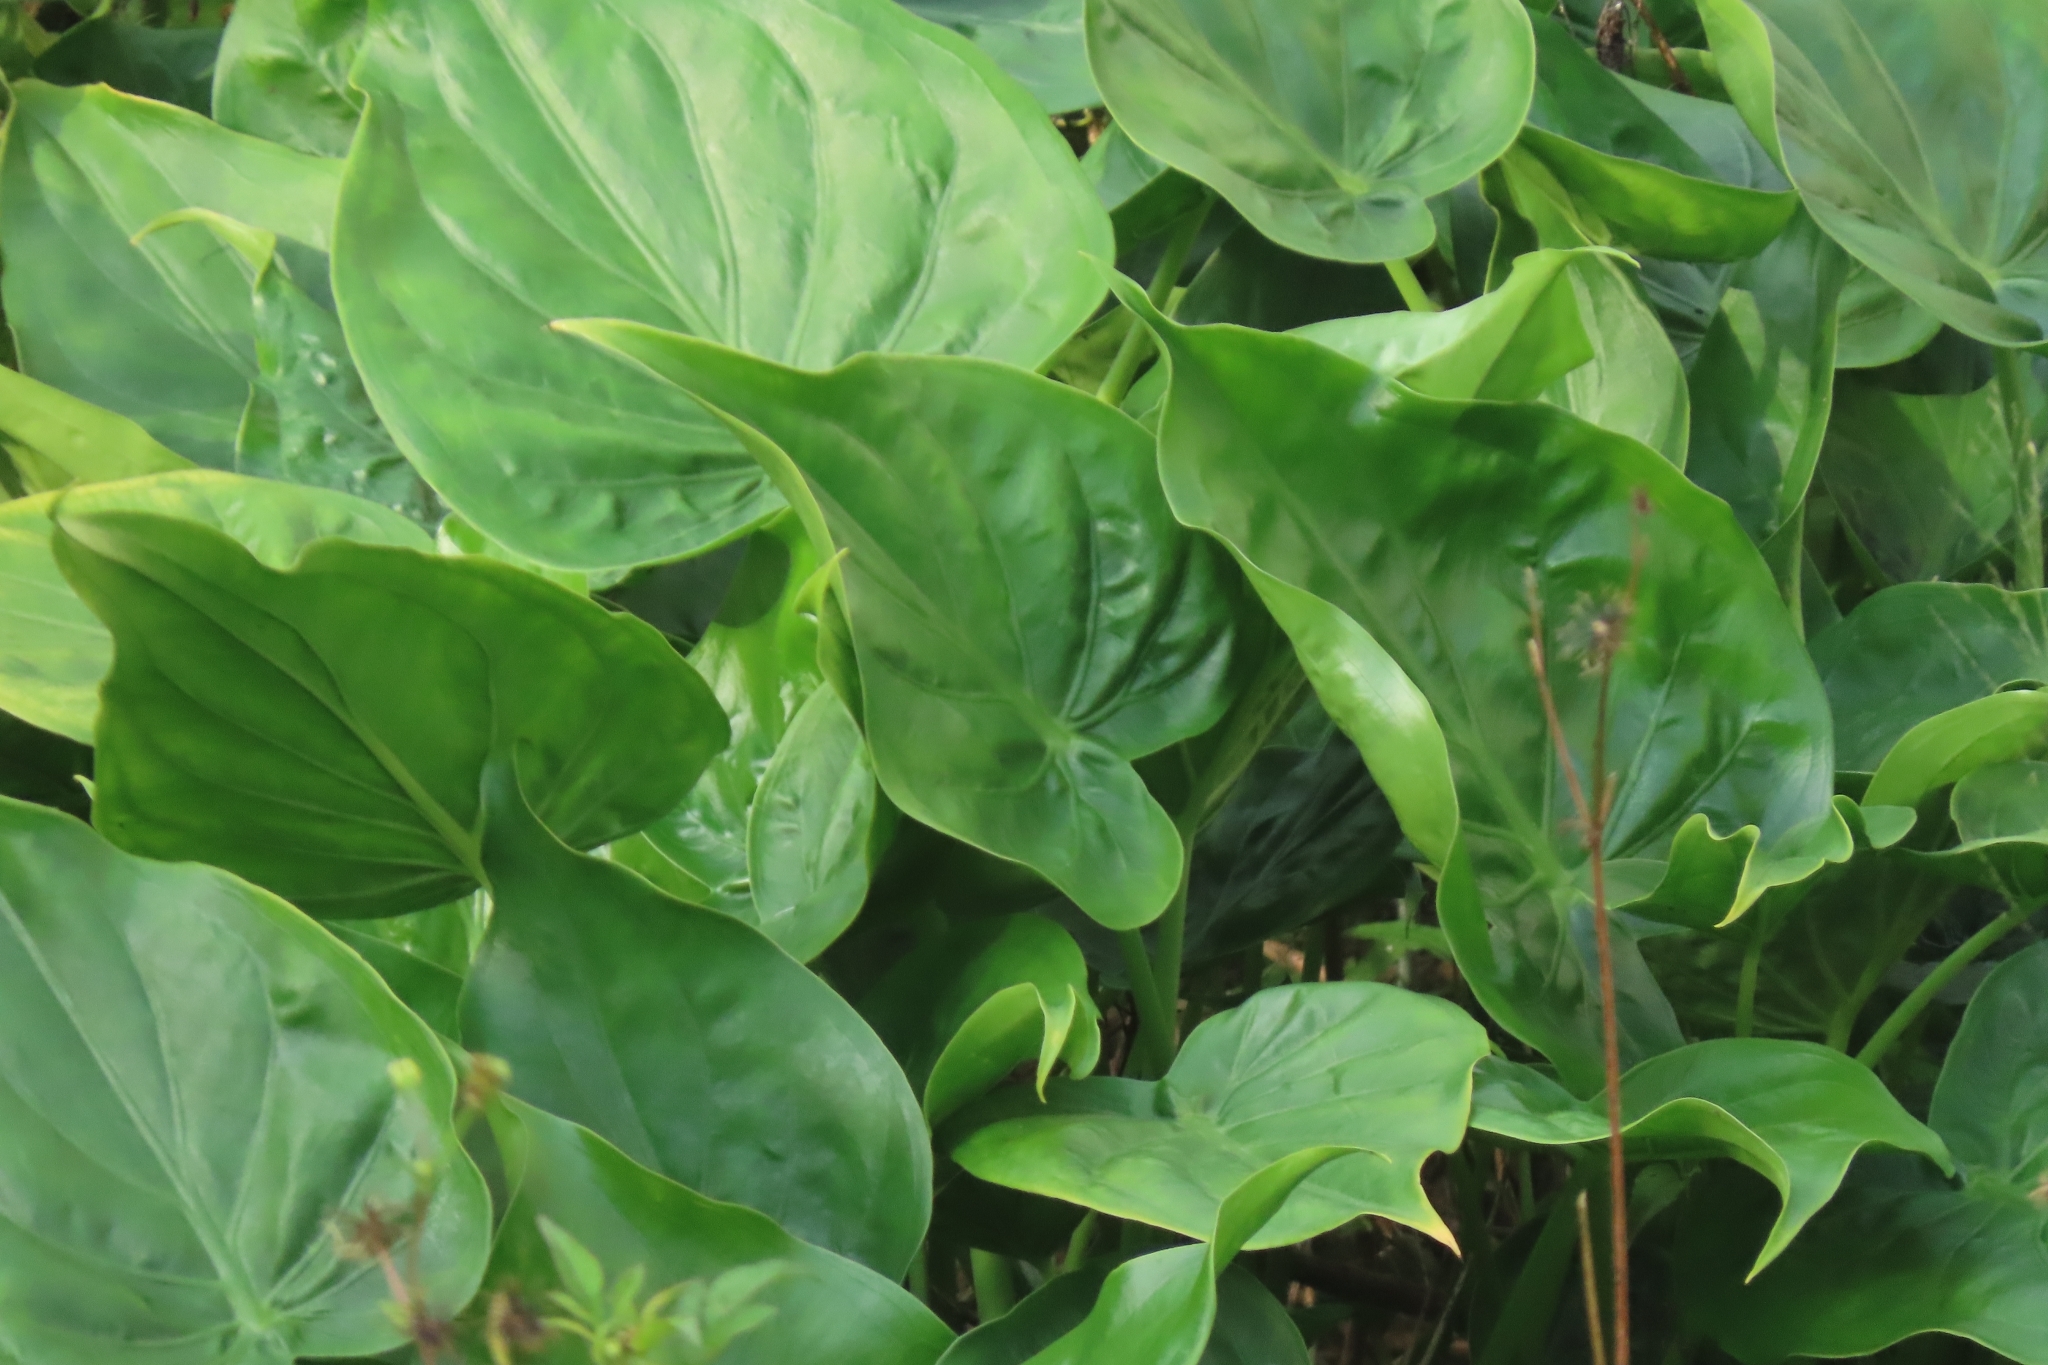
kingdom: Plantae
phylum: Tracheophyta
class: Liliopsida
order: Alismatales
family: Araceae
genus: Alocasia
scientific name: Alocasia cucullata
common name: Buddha's hand
